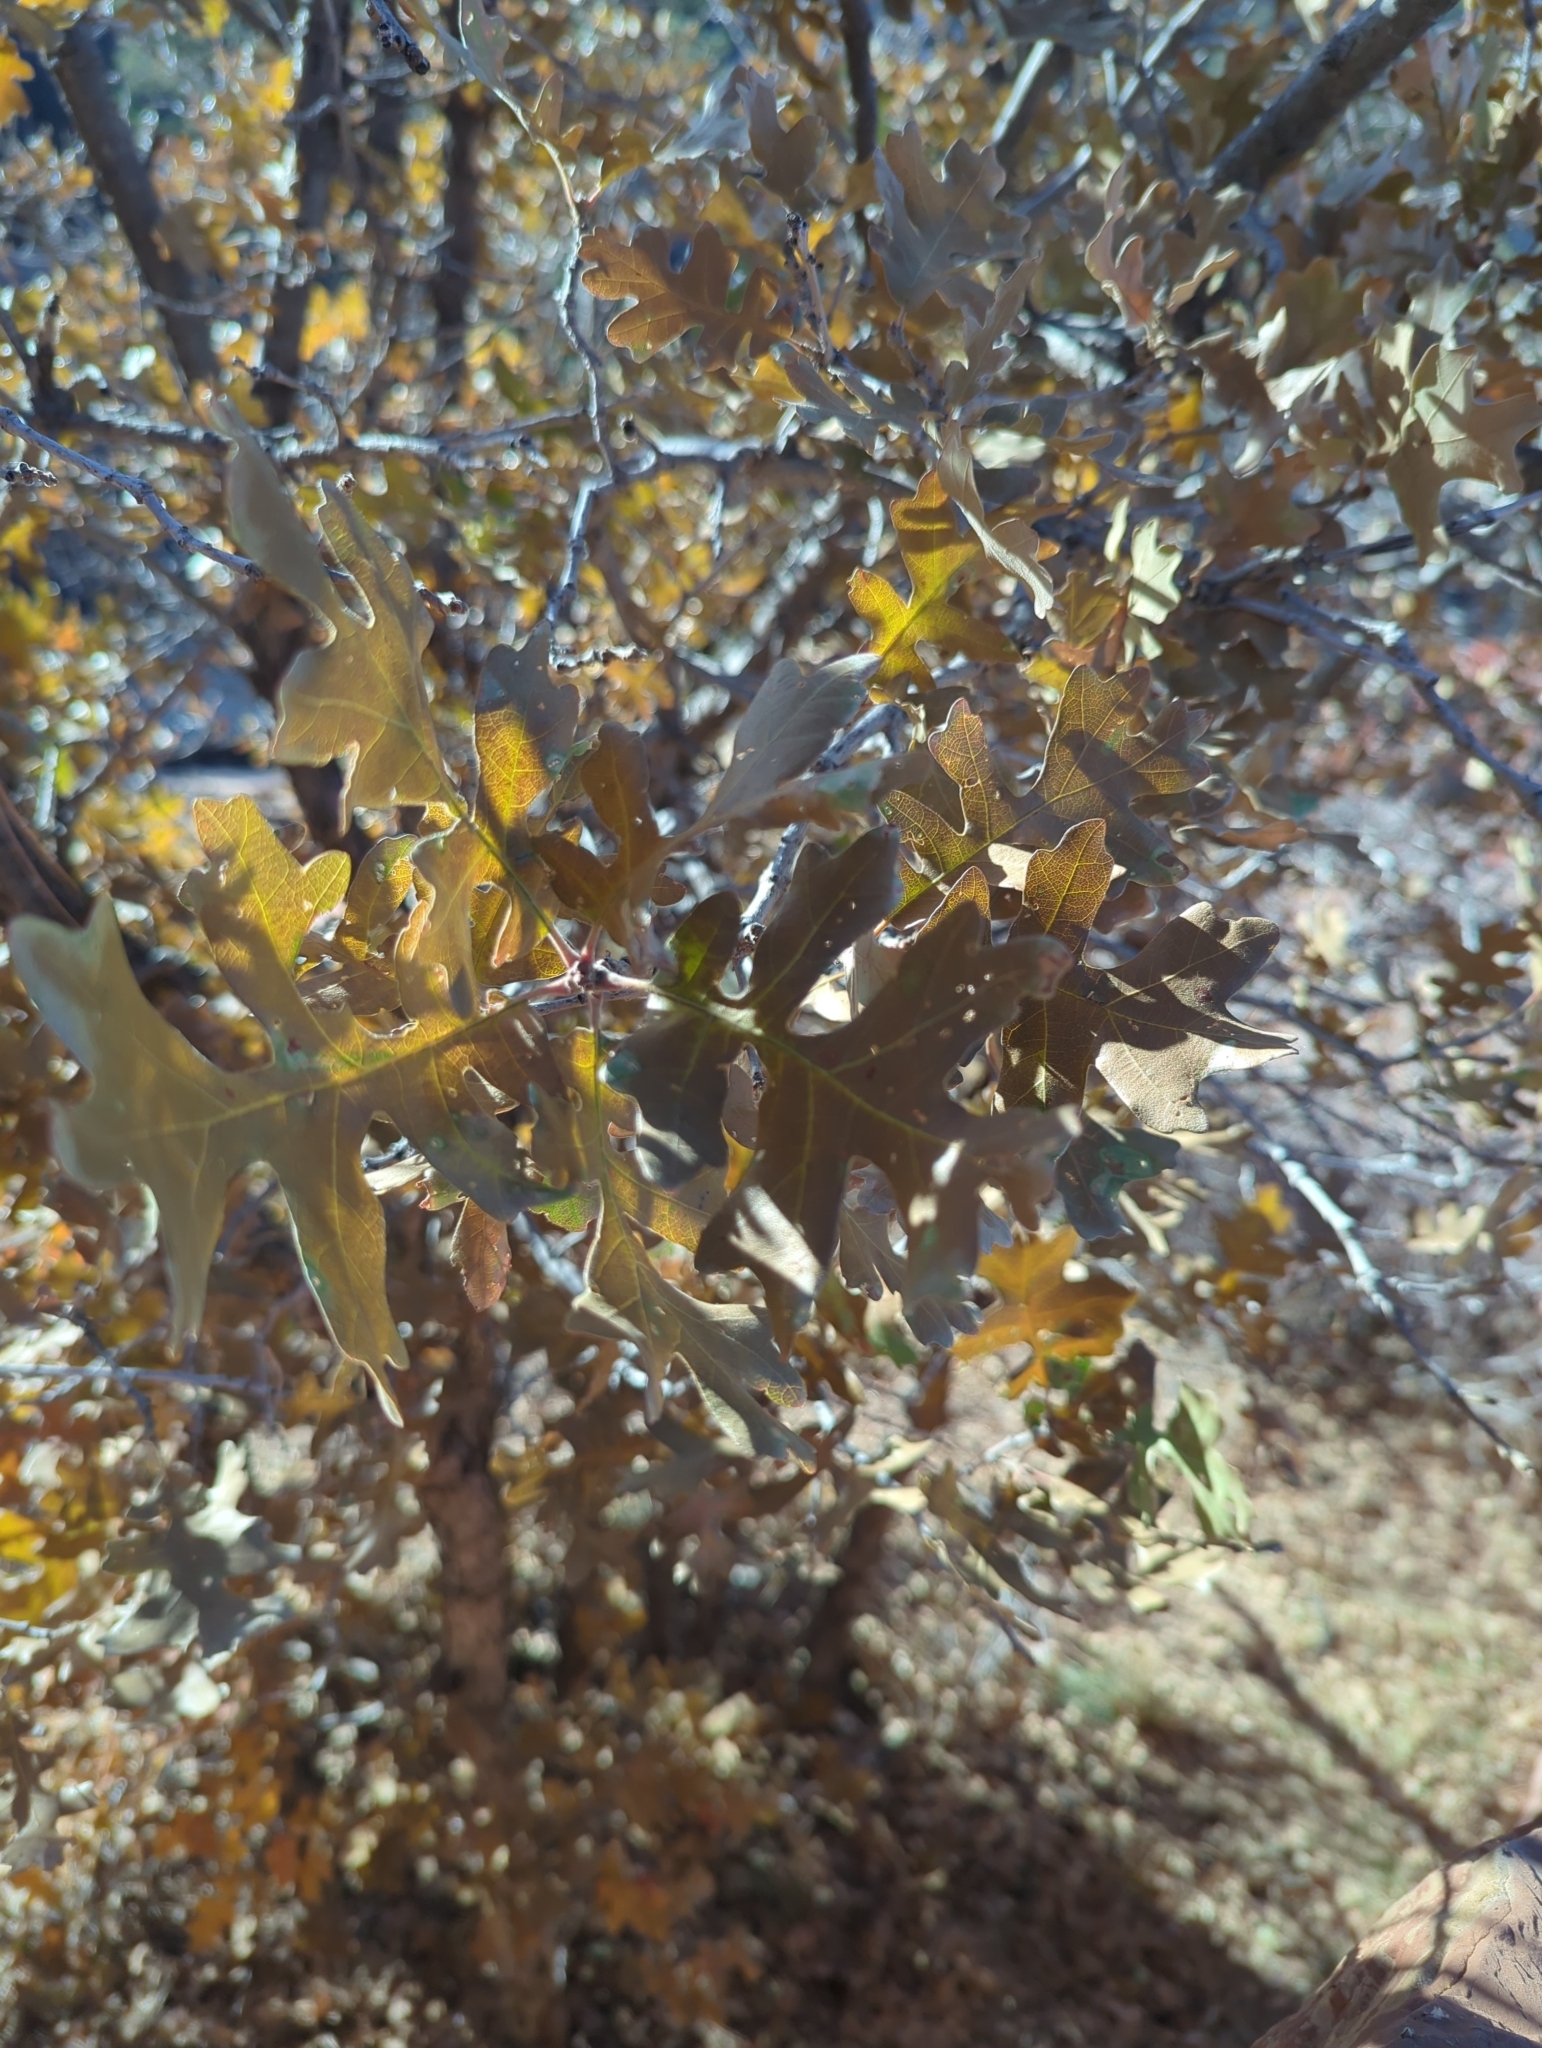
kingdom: Plantae
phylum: Tracheophyta
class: Magnoliopsida
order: Fagales
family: Fagaceae
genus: Quercus
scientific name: Quercus gambelii
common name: Gambel oak
